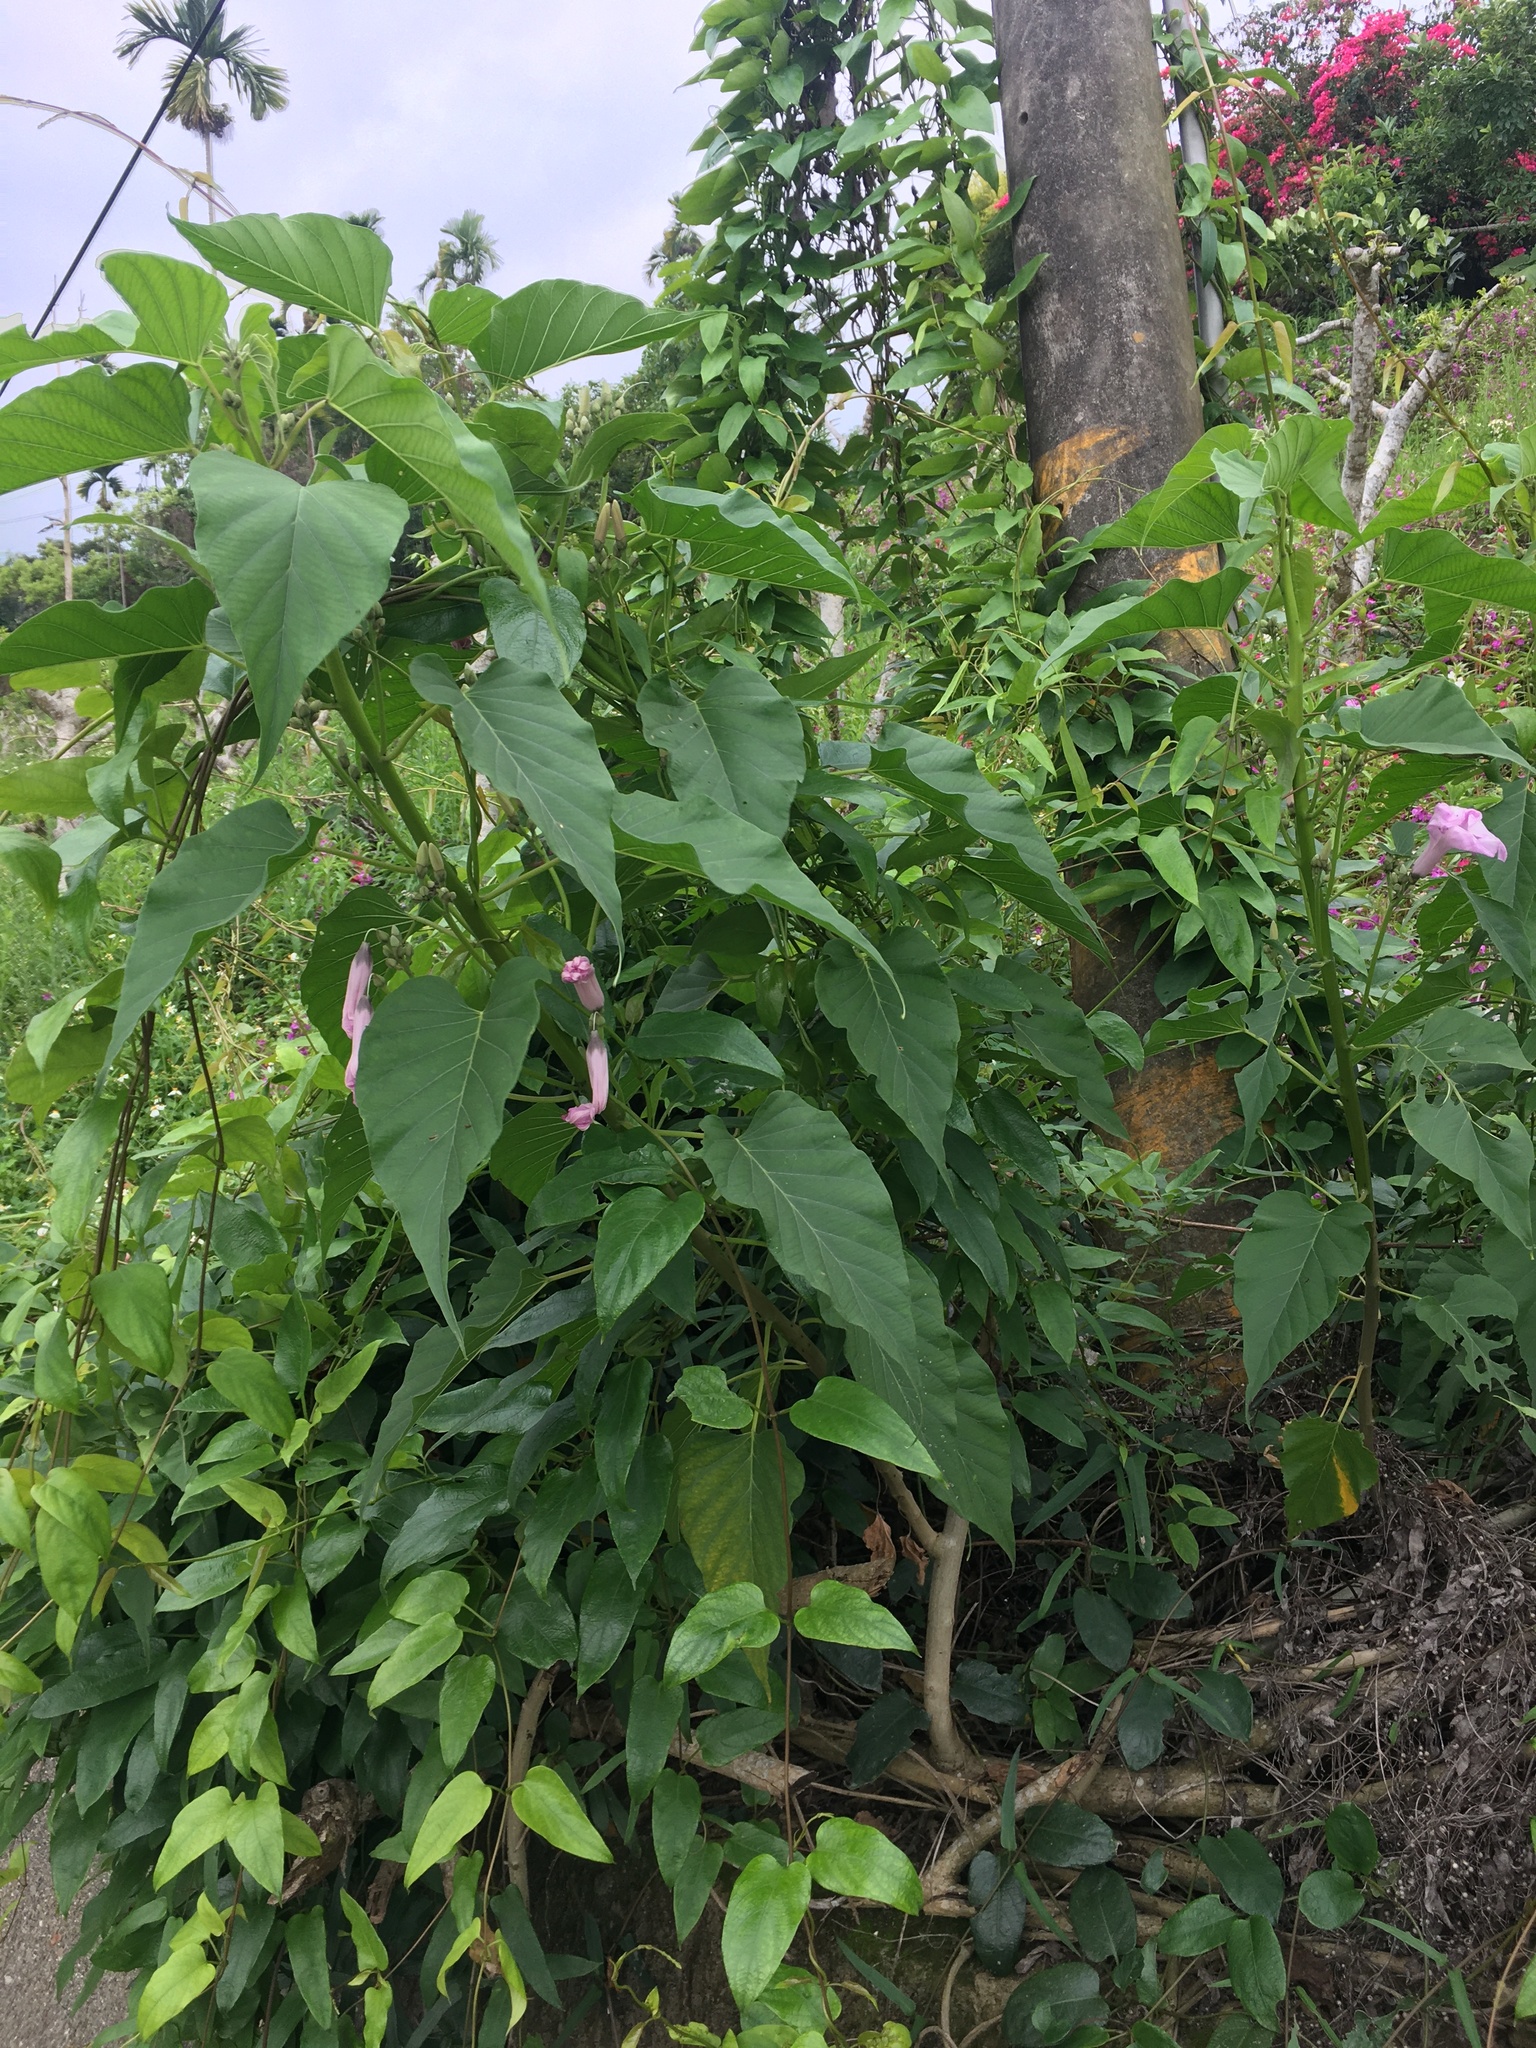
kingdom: Plantae
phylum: Tracheophyta
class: Magnoliopsida
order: Solanales
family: Convolvulaceae
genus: Ipomoea
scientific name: Ipomoea carnea
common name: Morning-glory
